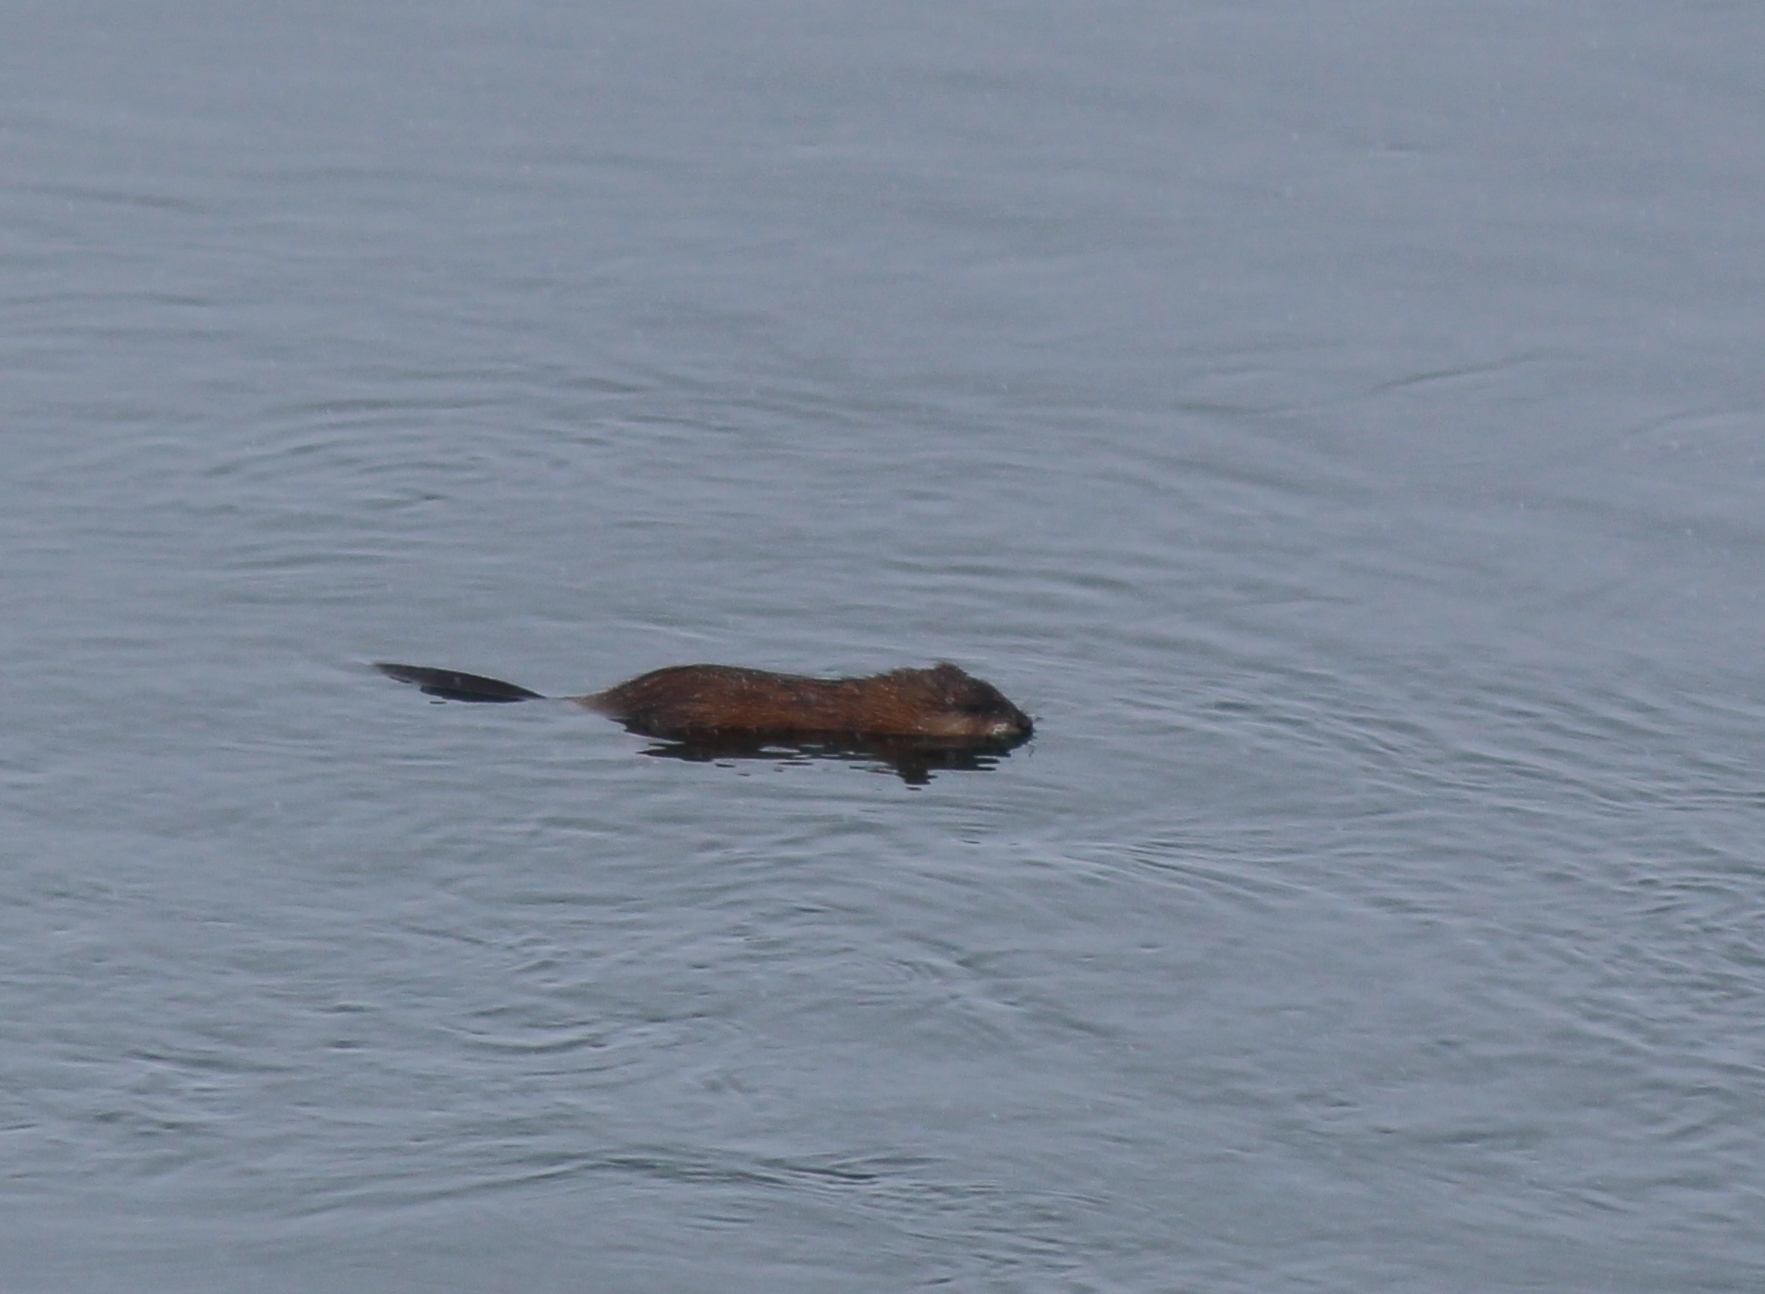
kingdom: Animalia
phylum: Chordata
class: Mammalia
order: Rodentia
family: Cricetidae
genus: Ondatra
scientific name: Ondatra zibethicus
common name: Muskrat
